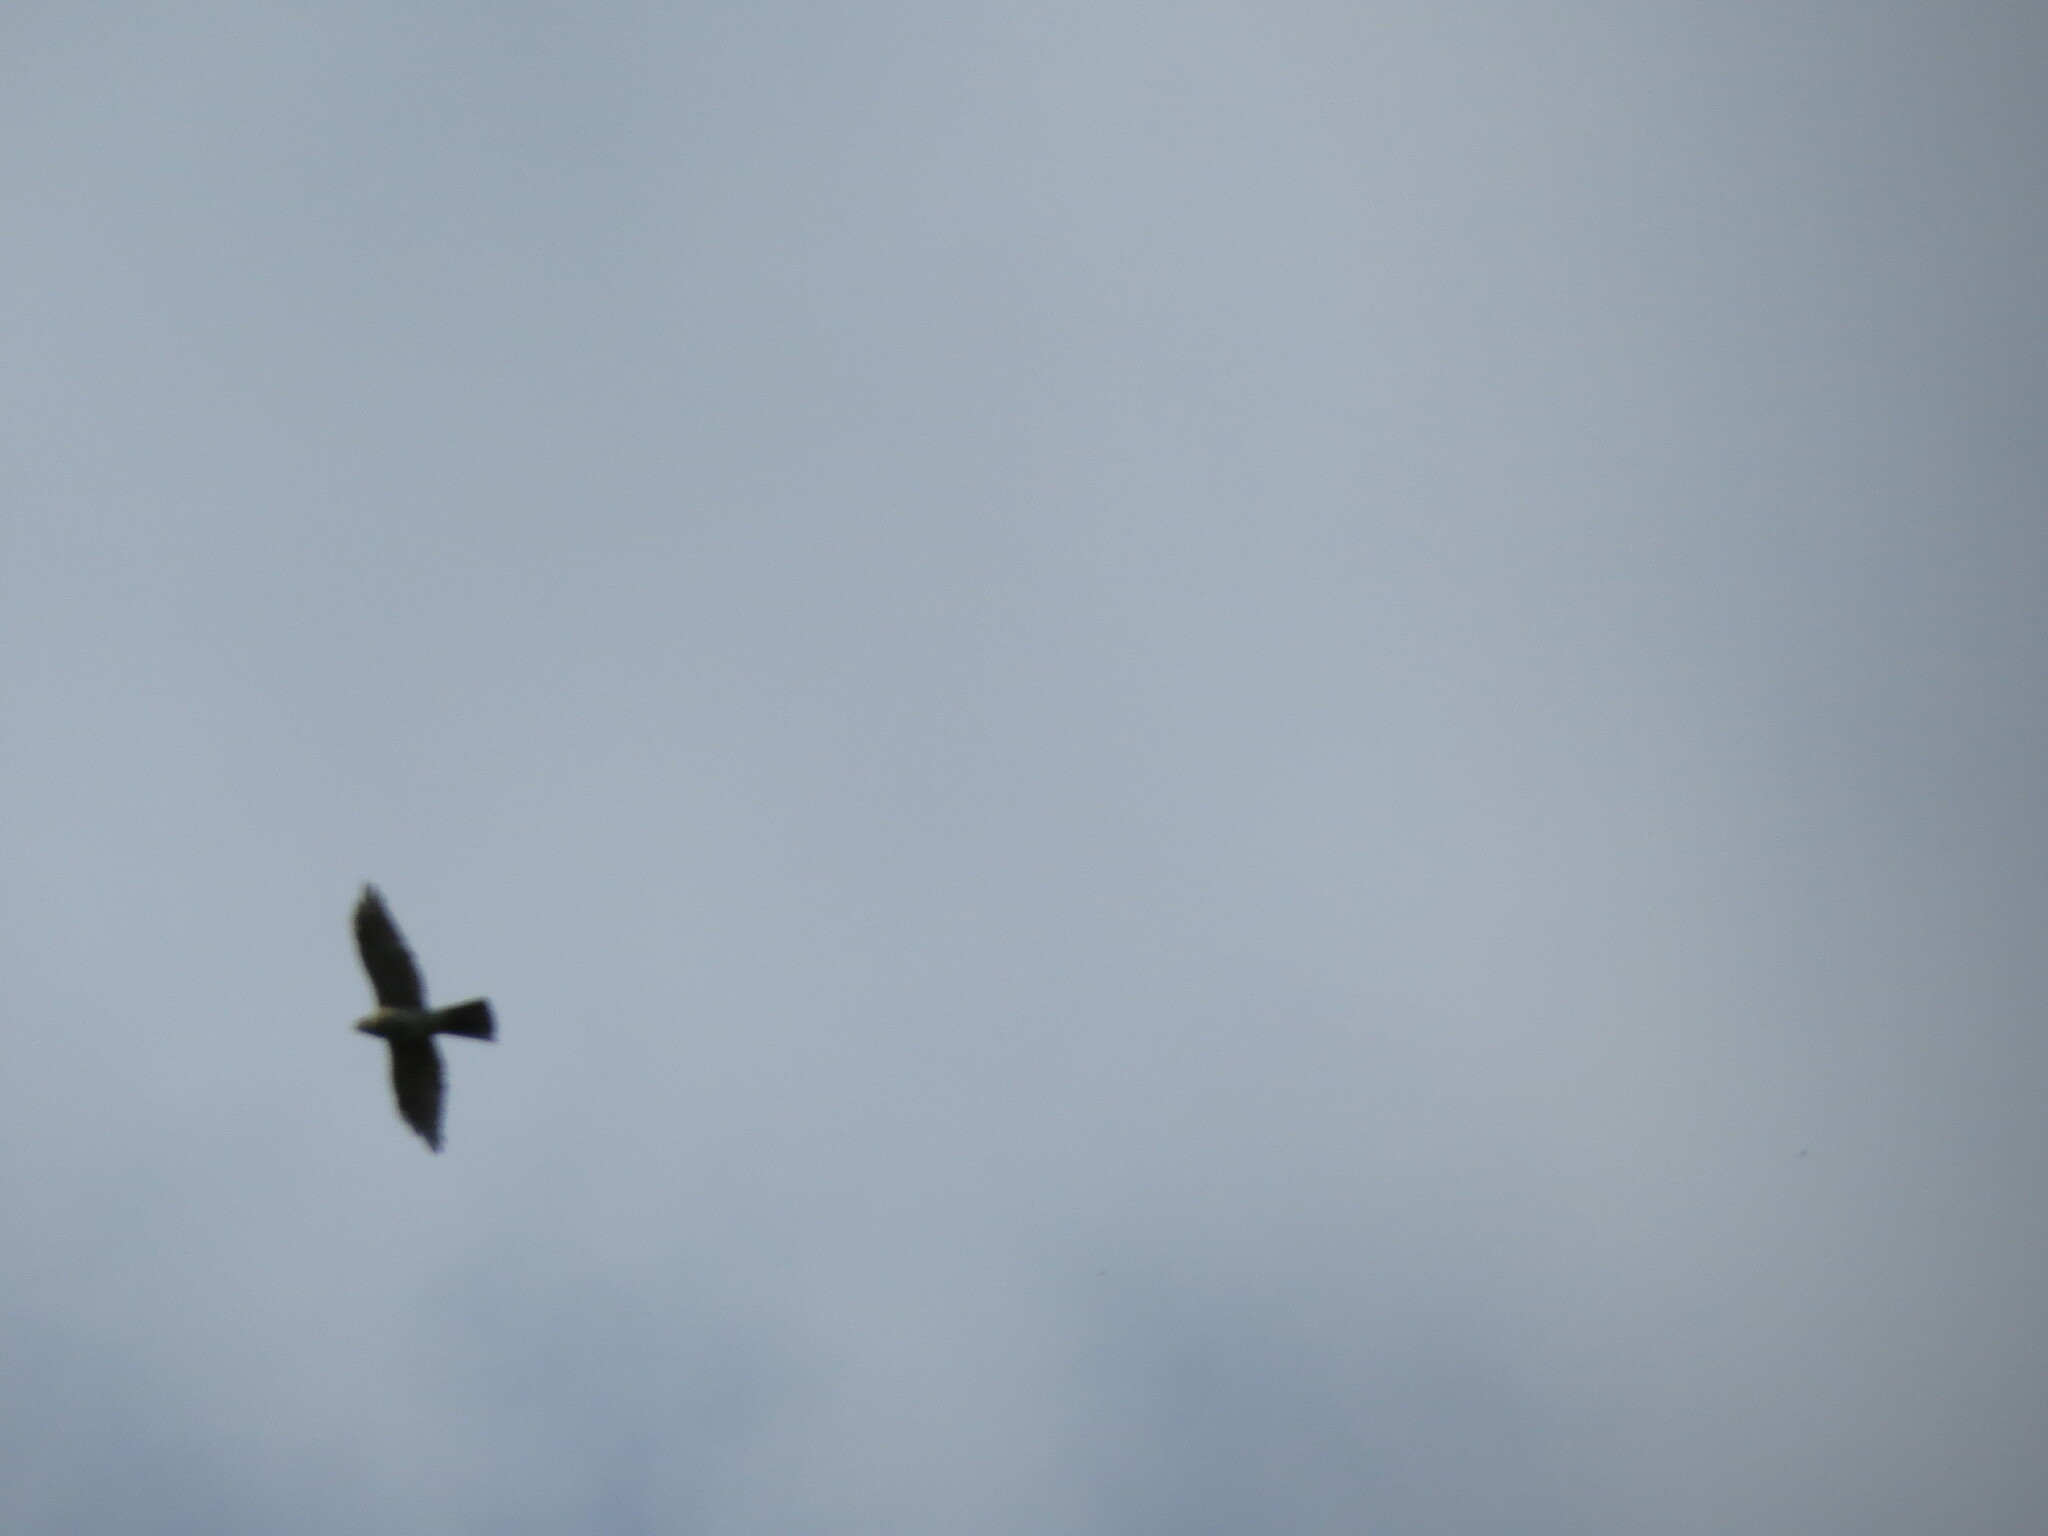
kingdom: Animalia
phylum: Chordata
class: Aves
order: Accipitriformes
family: Accipitridae
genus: Accipiter
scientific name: Accipiter nisus
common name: Eurasian sparrowhawk
